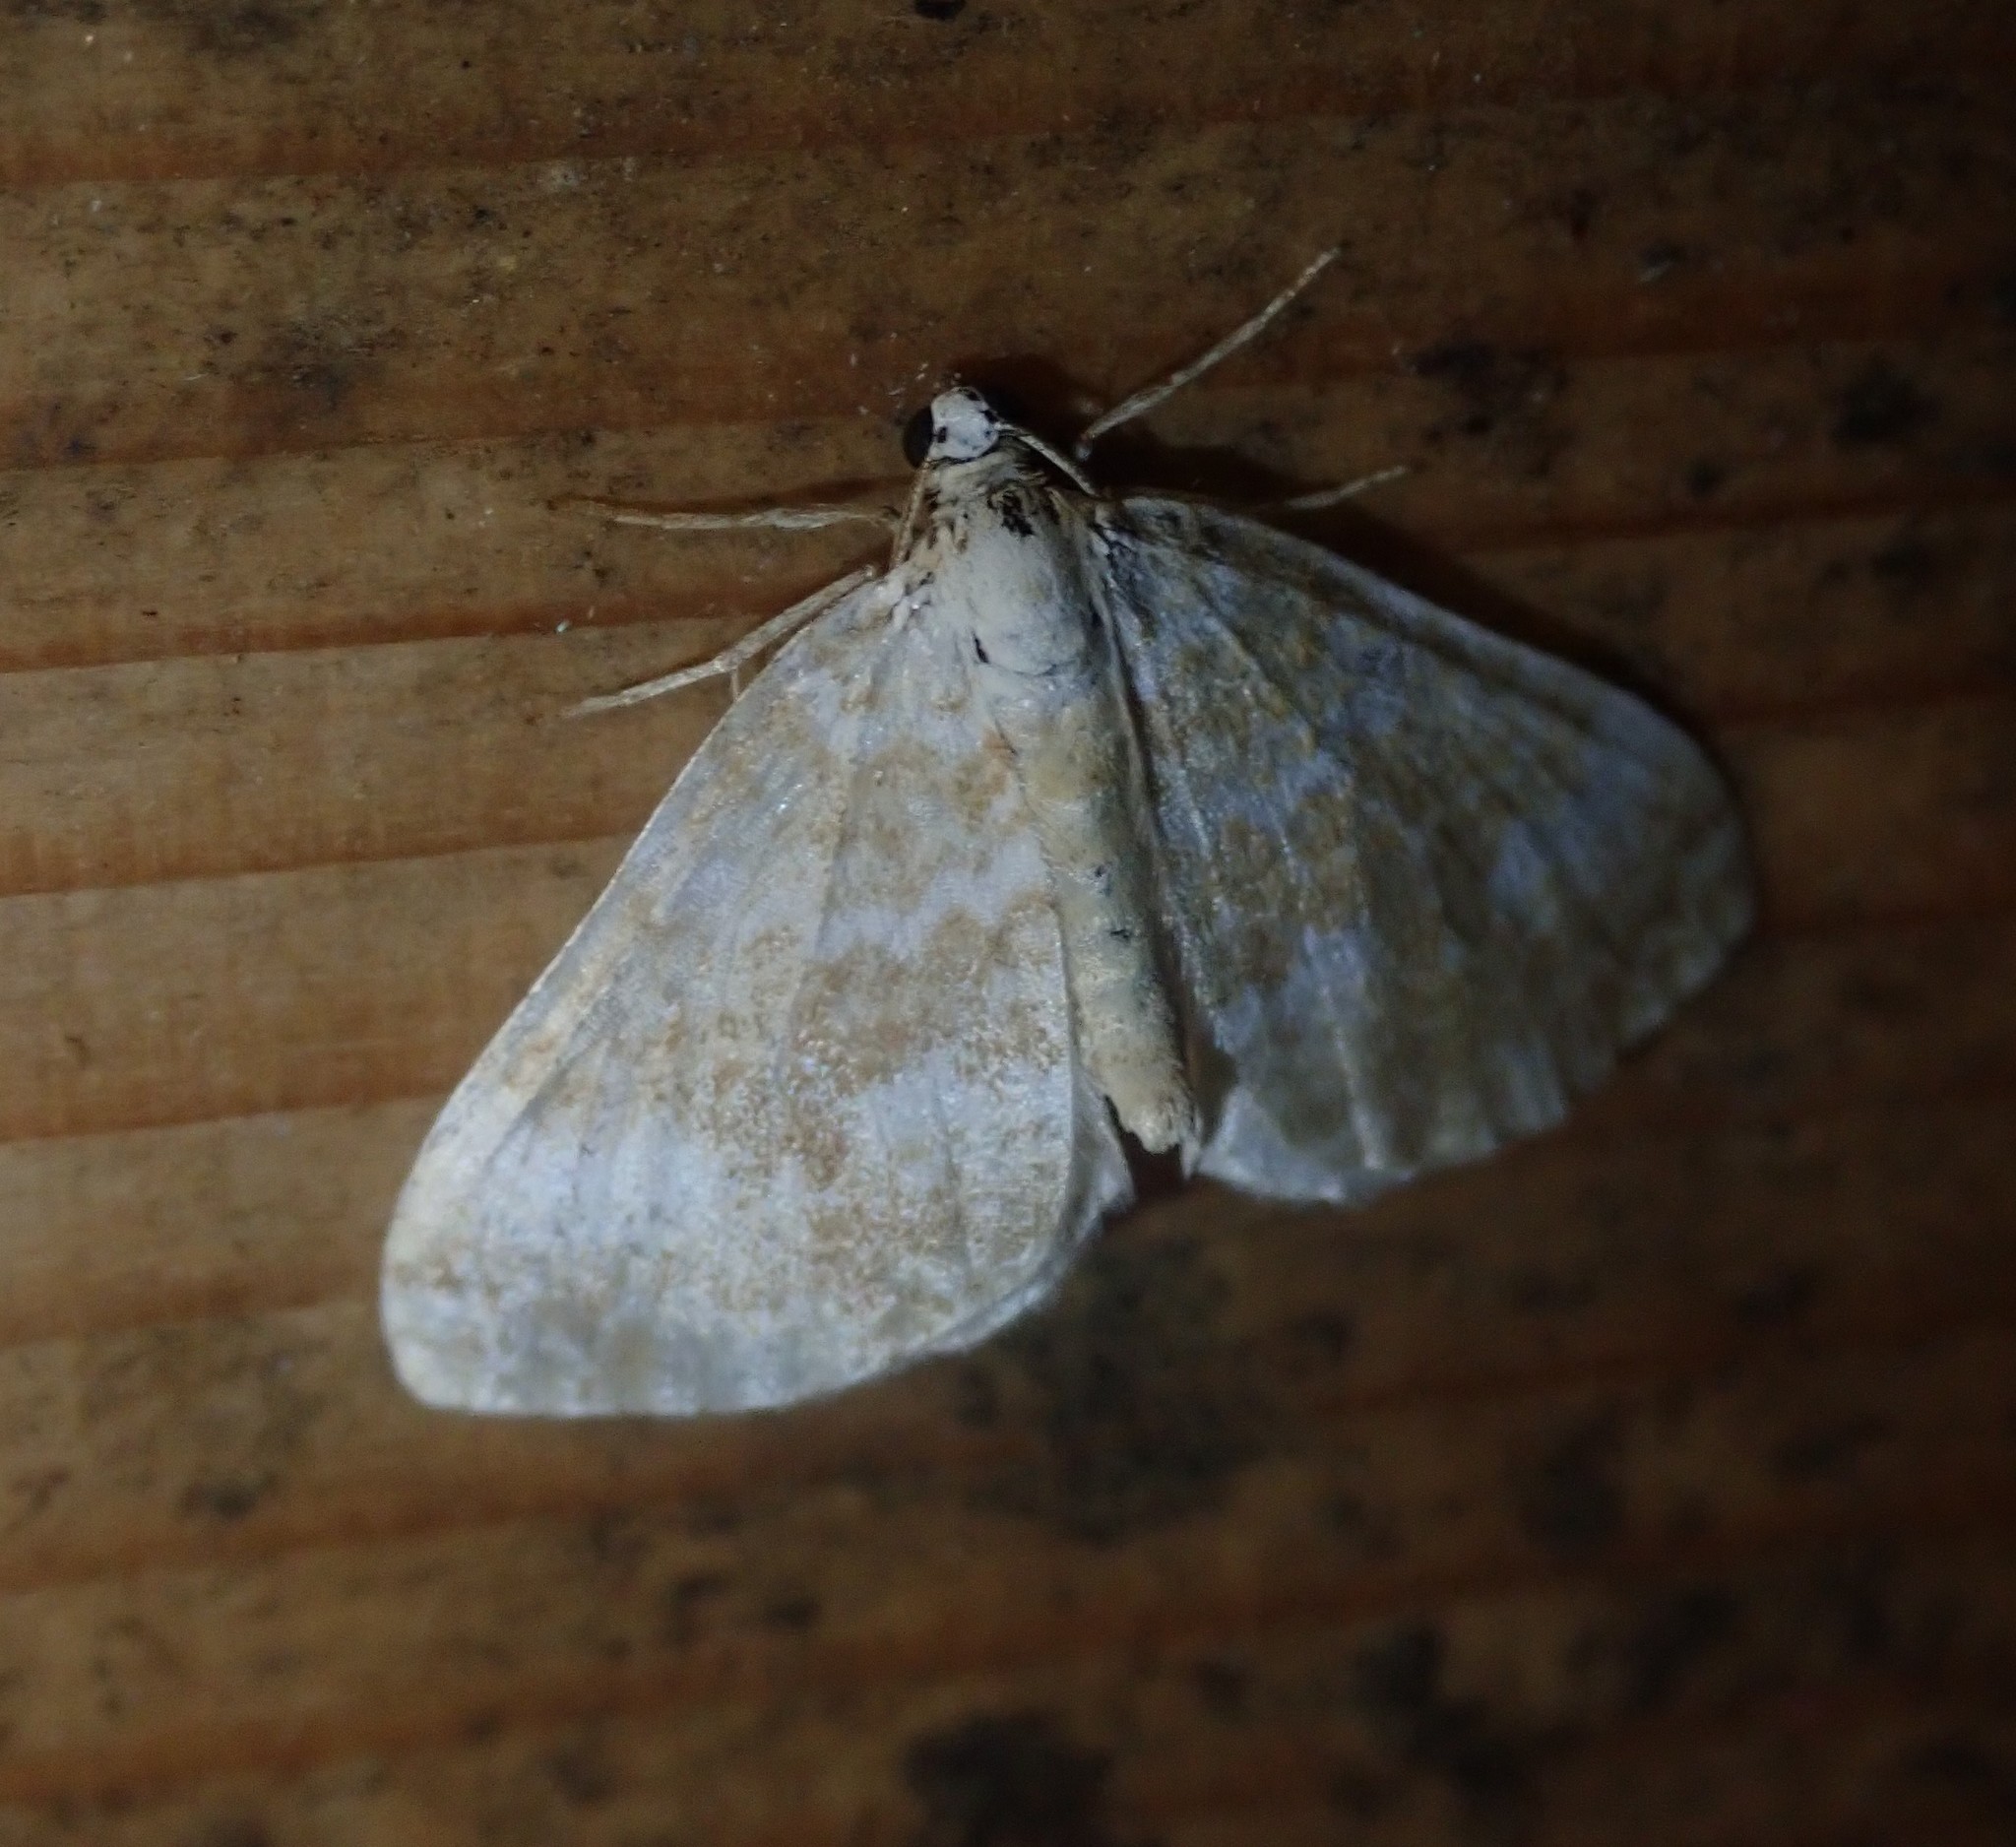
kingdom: Animalia
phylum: Arthropoda
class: Insecta
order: Lepidoptera
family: Geometridae
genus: Perizoma
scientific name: Perizoma flavofasciata
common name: Sandy carpet
